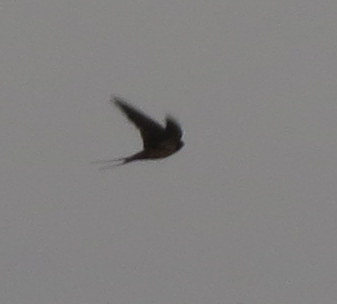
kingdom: Animalia
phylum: Chordata
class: Aves
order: Passeriformes
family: Hirundinidae
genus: Hirundo
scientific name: Hirundo rustica
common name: Barn swallow
